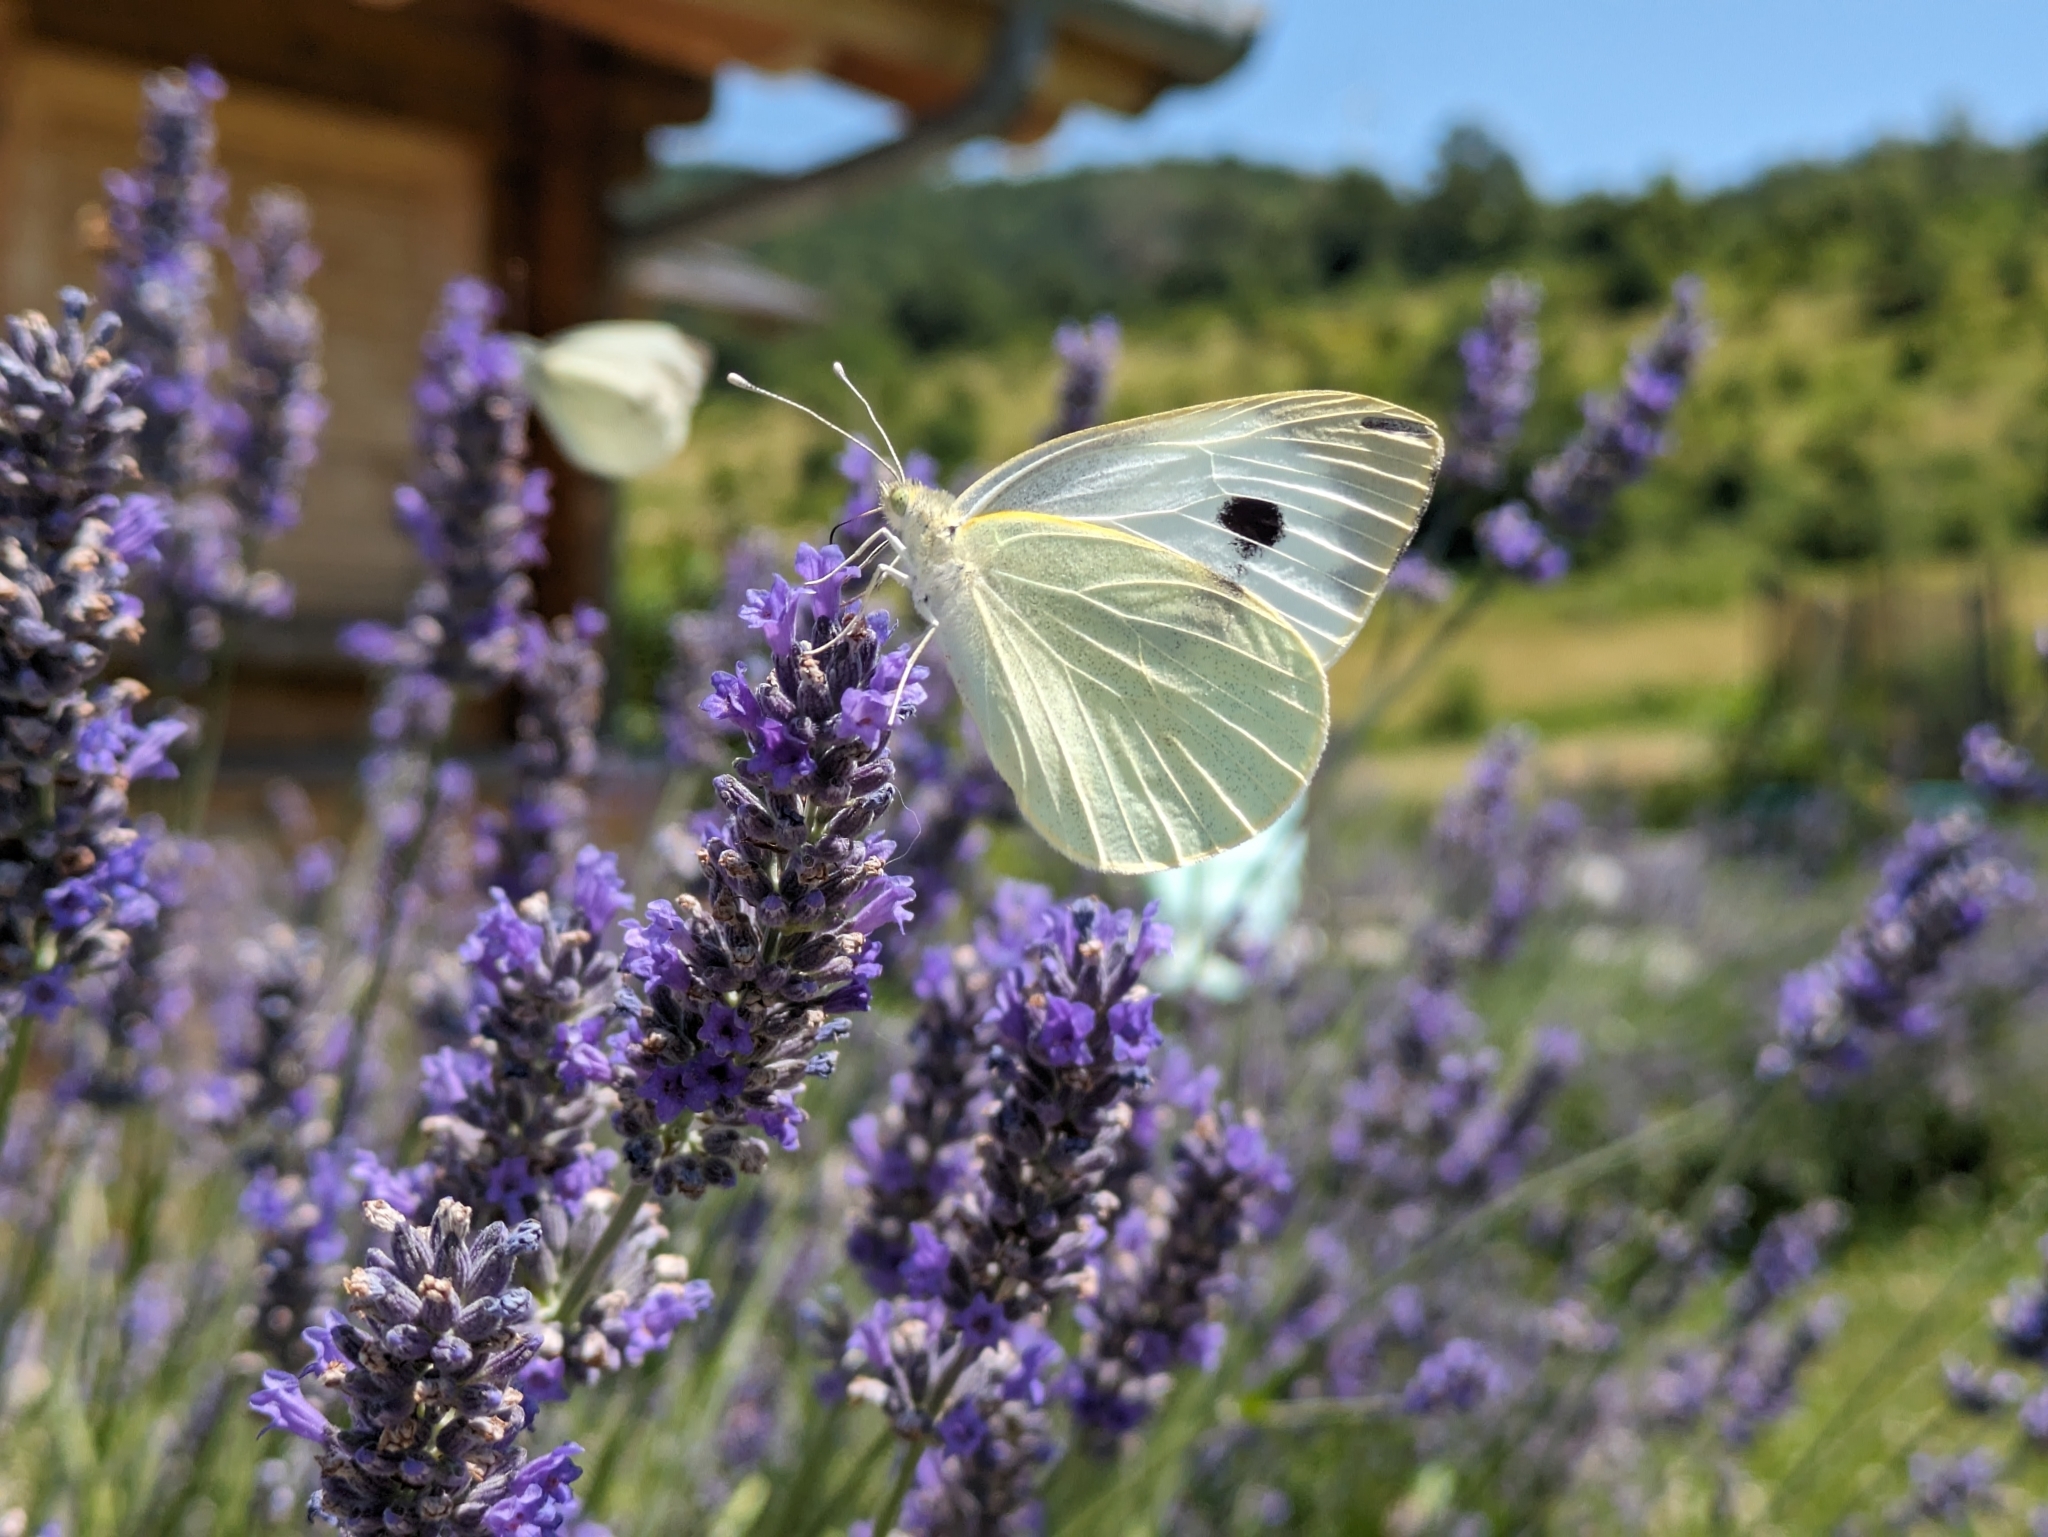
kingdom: Animalia
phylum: Arthropoda
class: Insecta
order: Lepidoptera
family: Pieridae
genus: Pieris
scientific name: Pieris brassicae
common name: Large white
